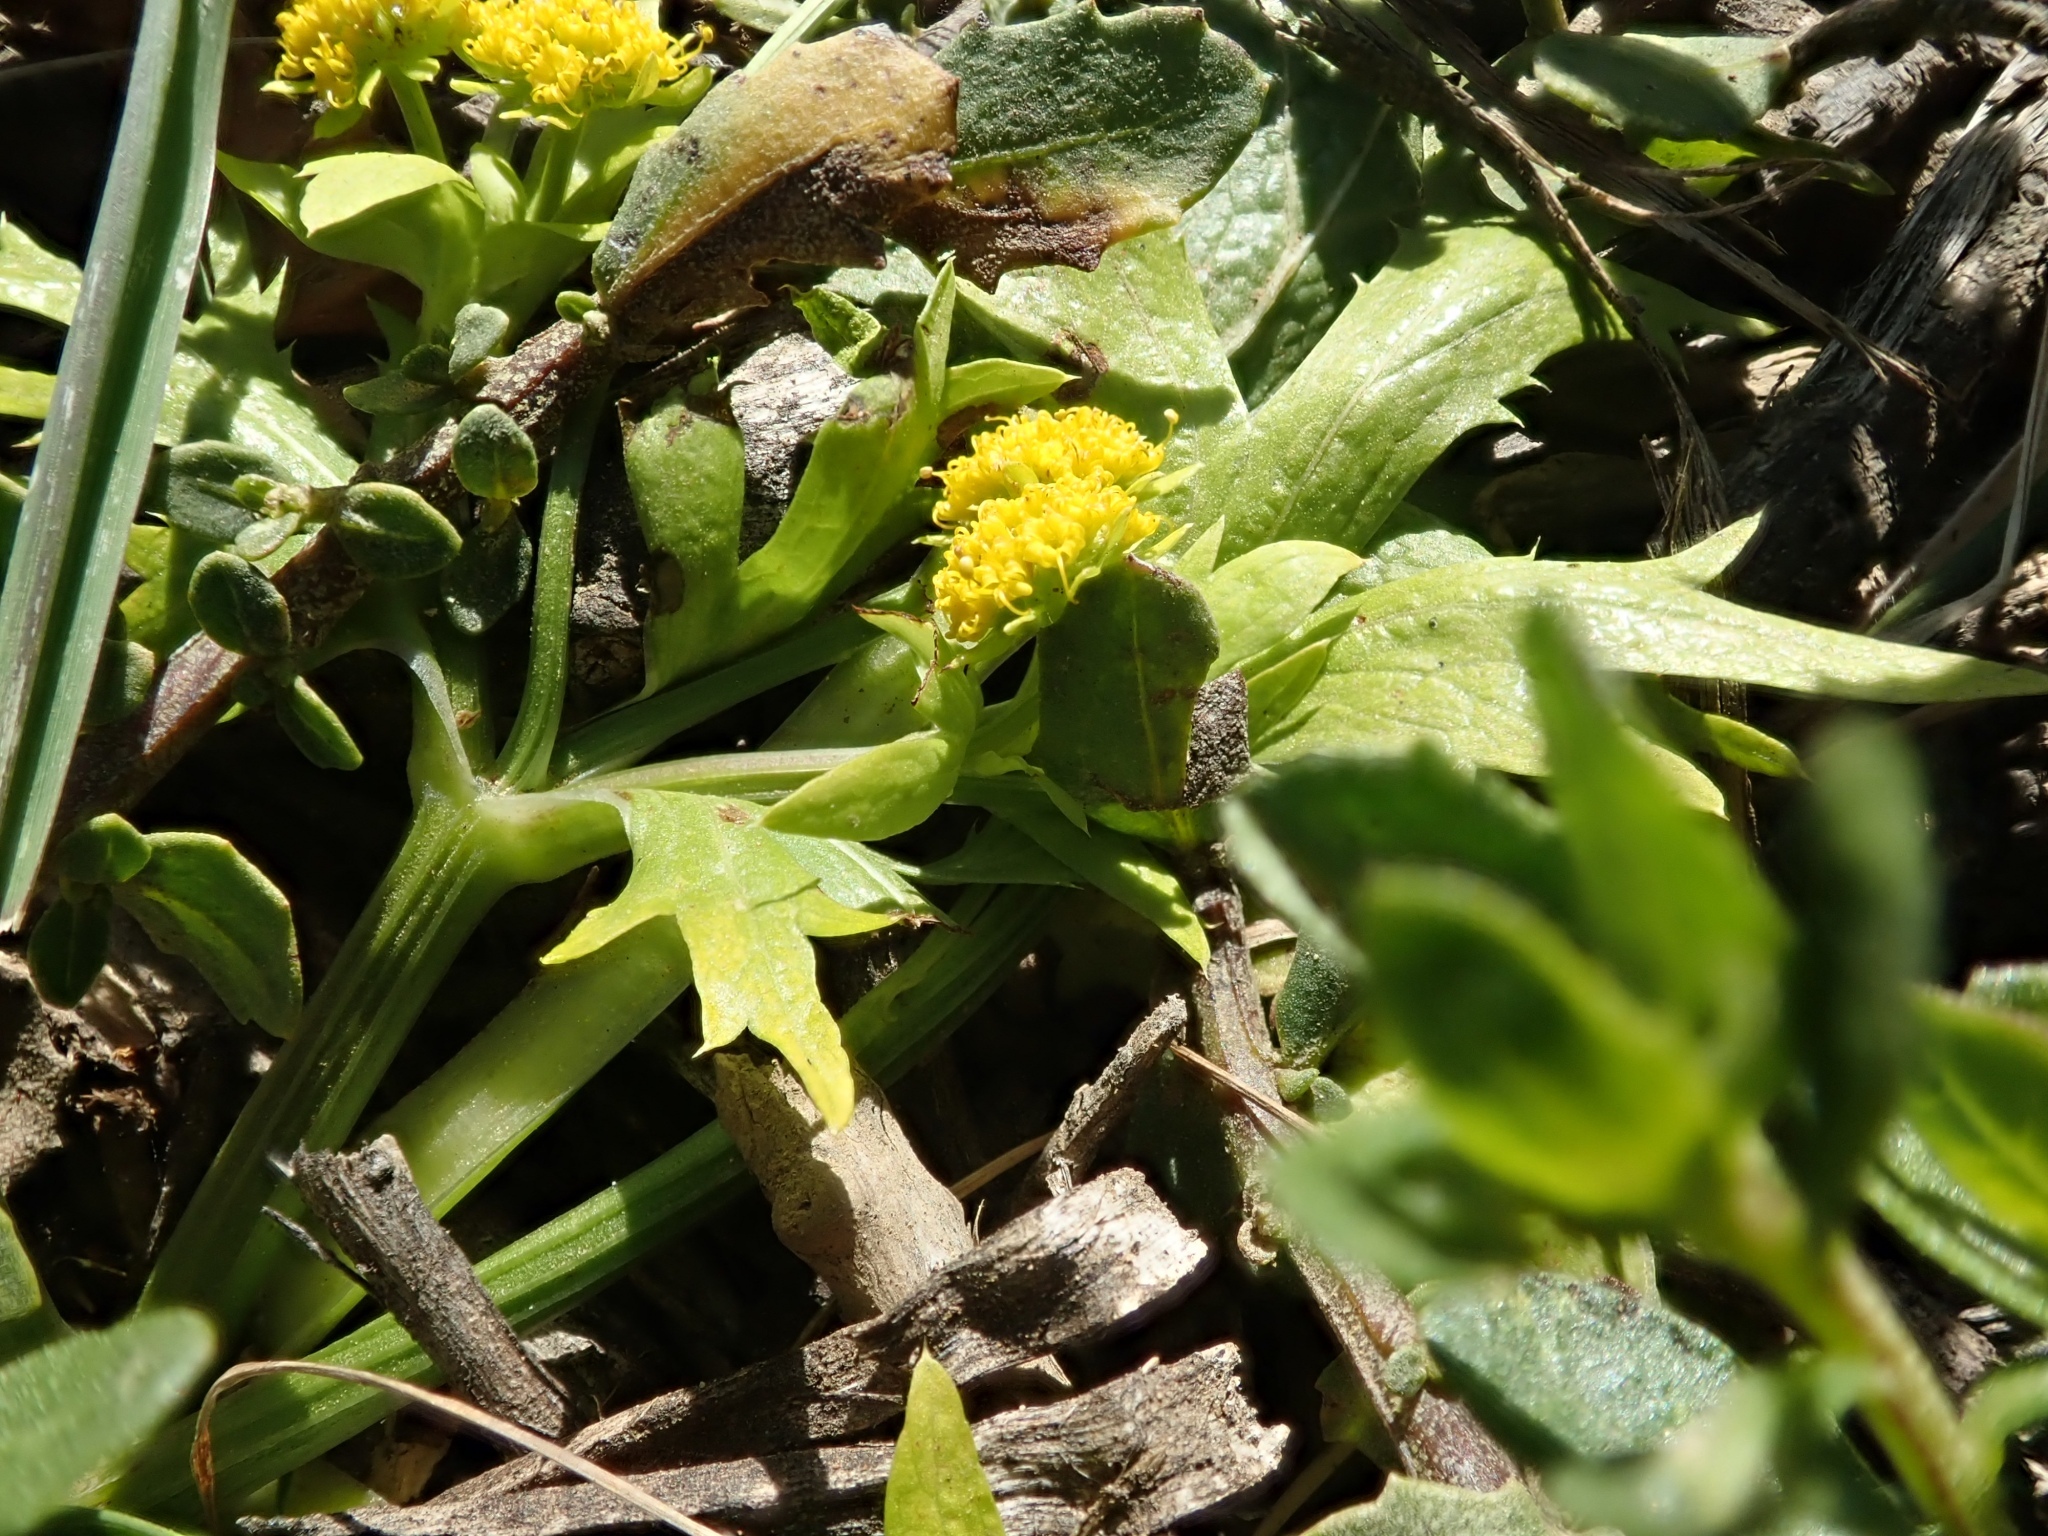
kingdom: Plantae
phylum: Tracheophyta
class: Magnoliopsida
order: Apiales
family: Apiaceae
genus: Sanicula
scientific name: Sanicula arctopoides
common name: Footsteps-of-spring
